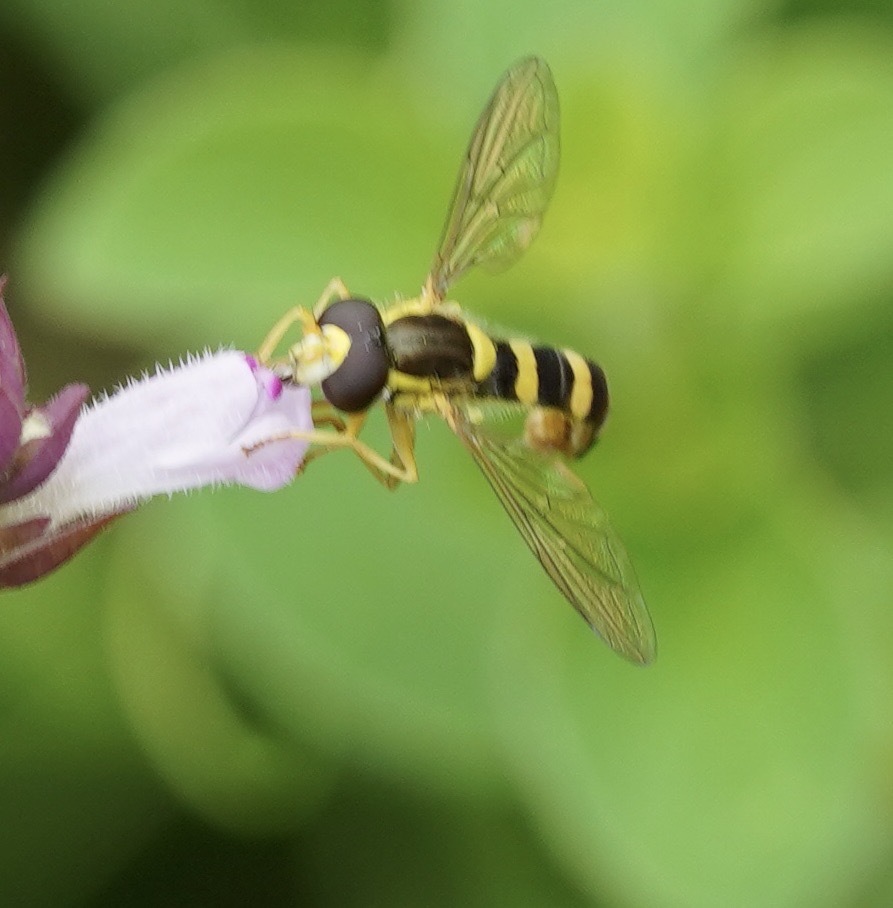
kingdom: Animalia
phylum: Arthropoda
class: Insecta
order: Diptera
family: Syrphidae
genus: Sphaerophoria
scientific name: Sphaerophoria scripta
